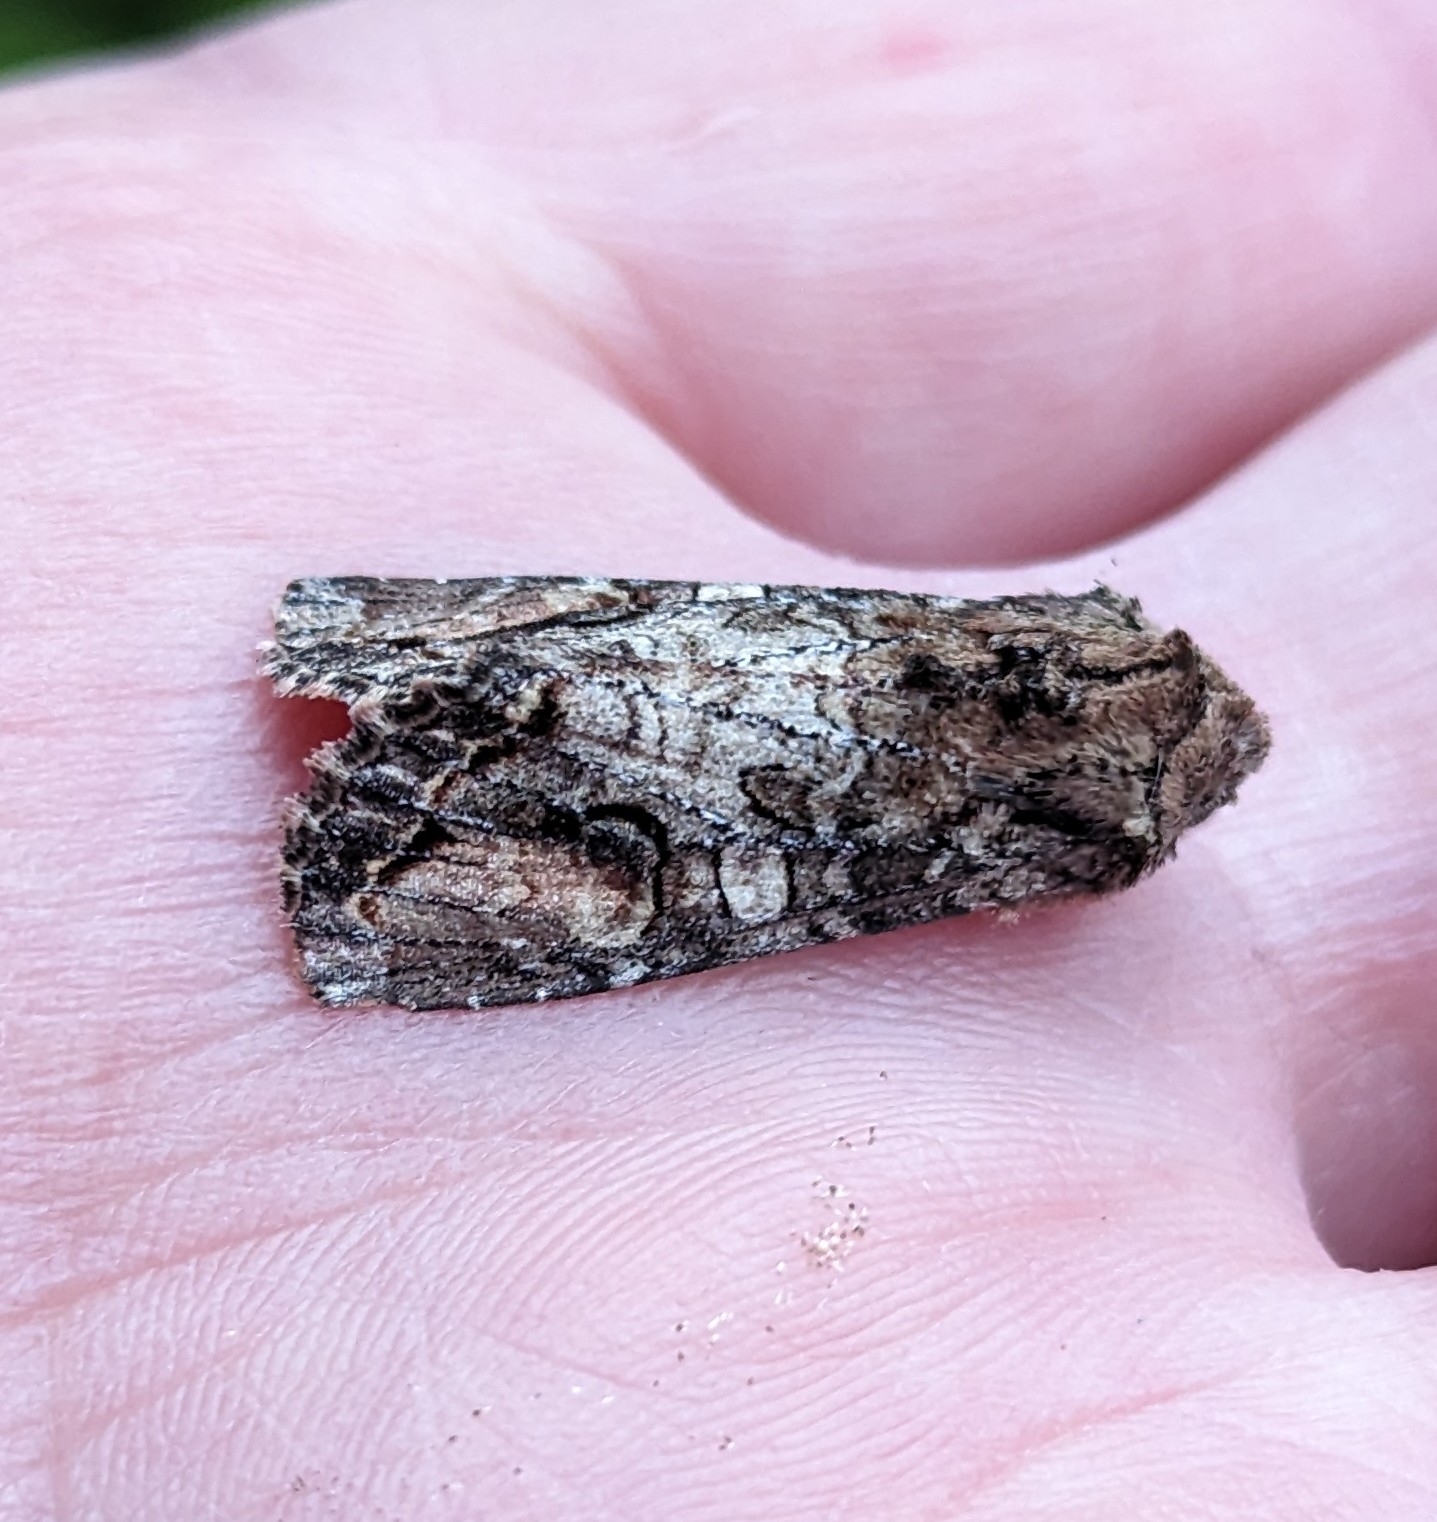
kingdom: Animalia
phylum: Arthropoda
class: Insecta
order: Lepidoptera
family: Noctuidae
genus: Egira
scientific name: Egira perlubens
